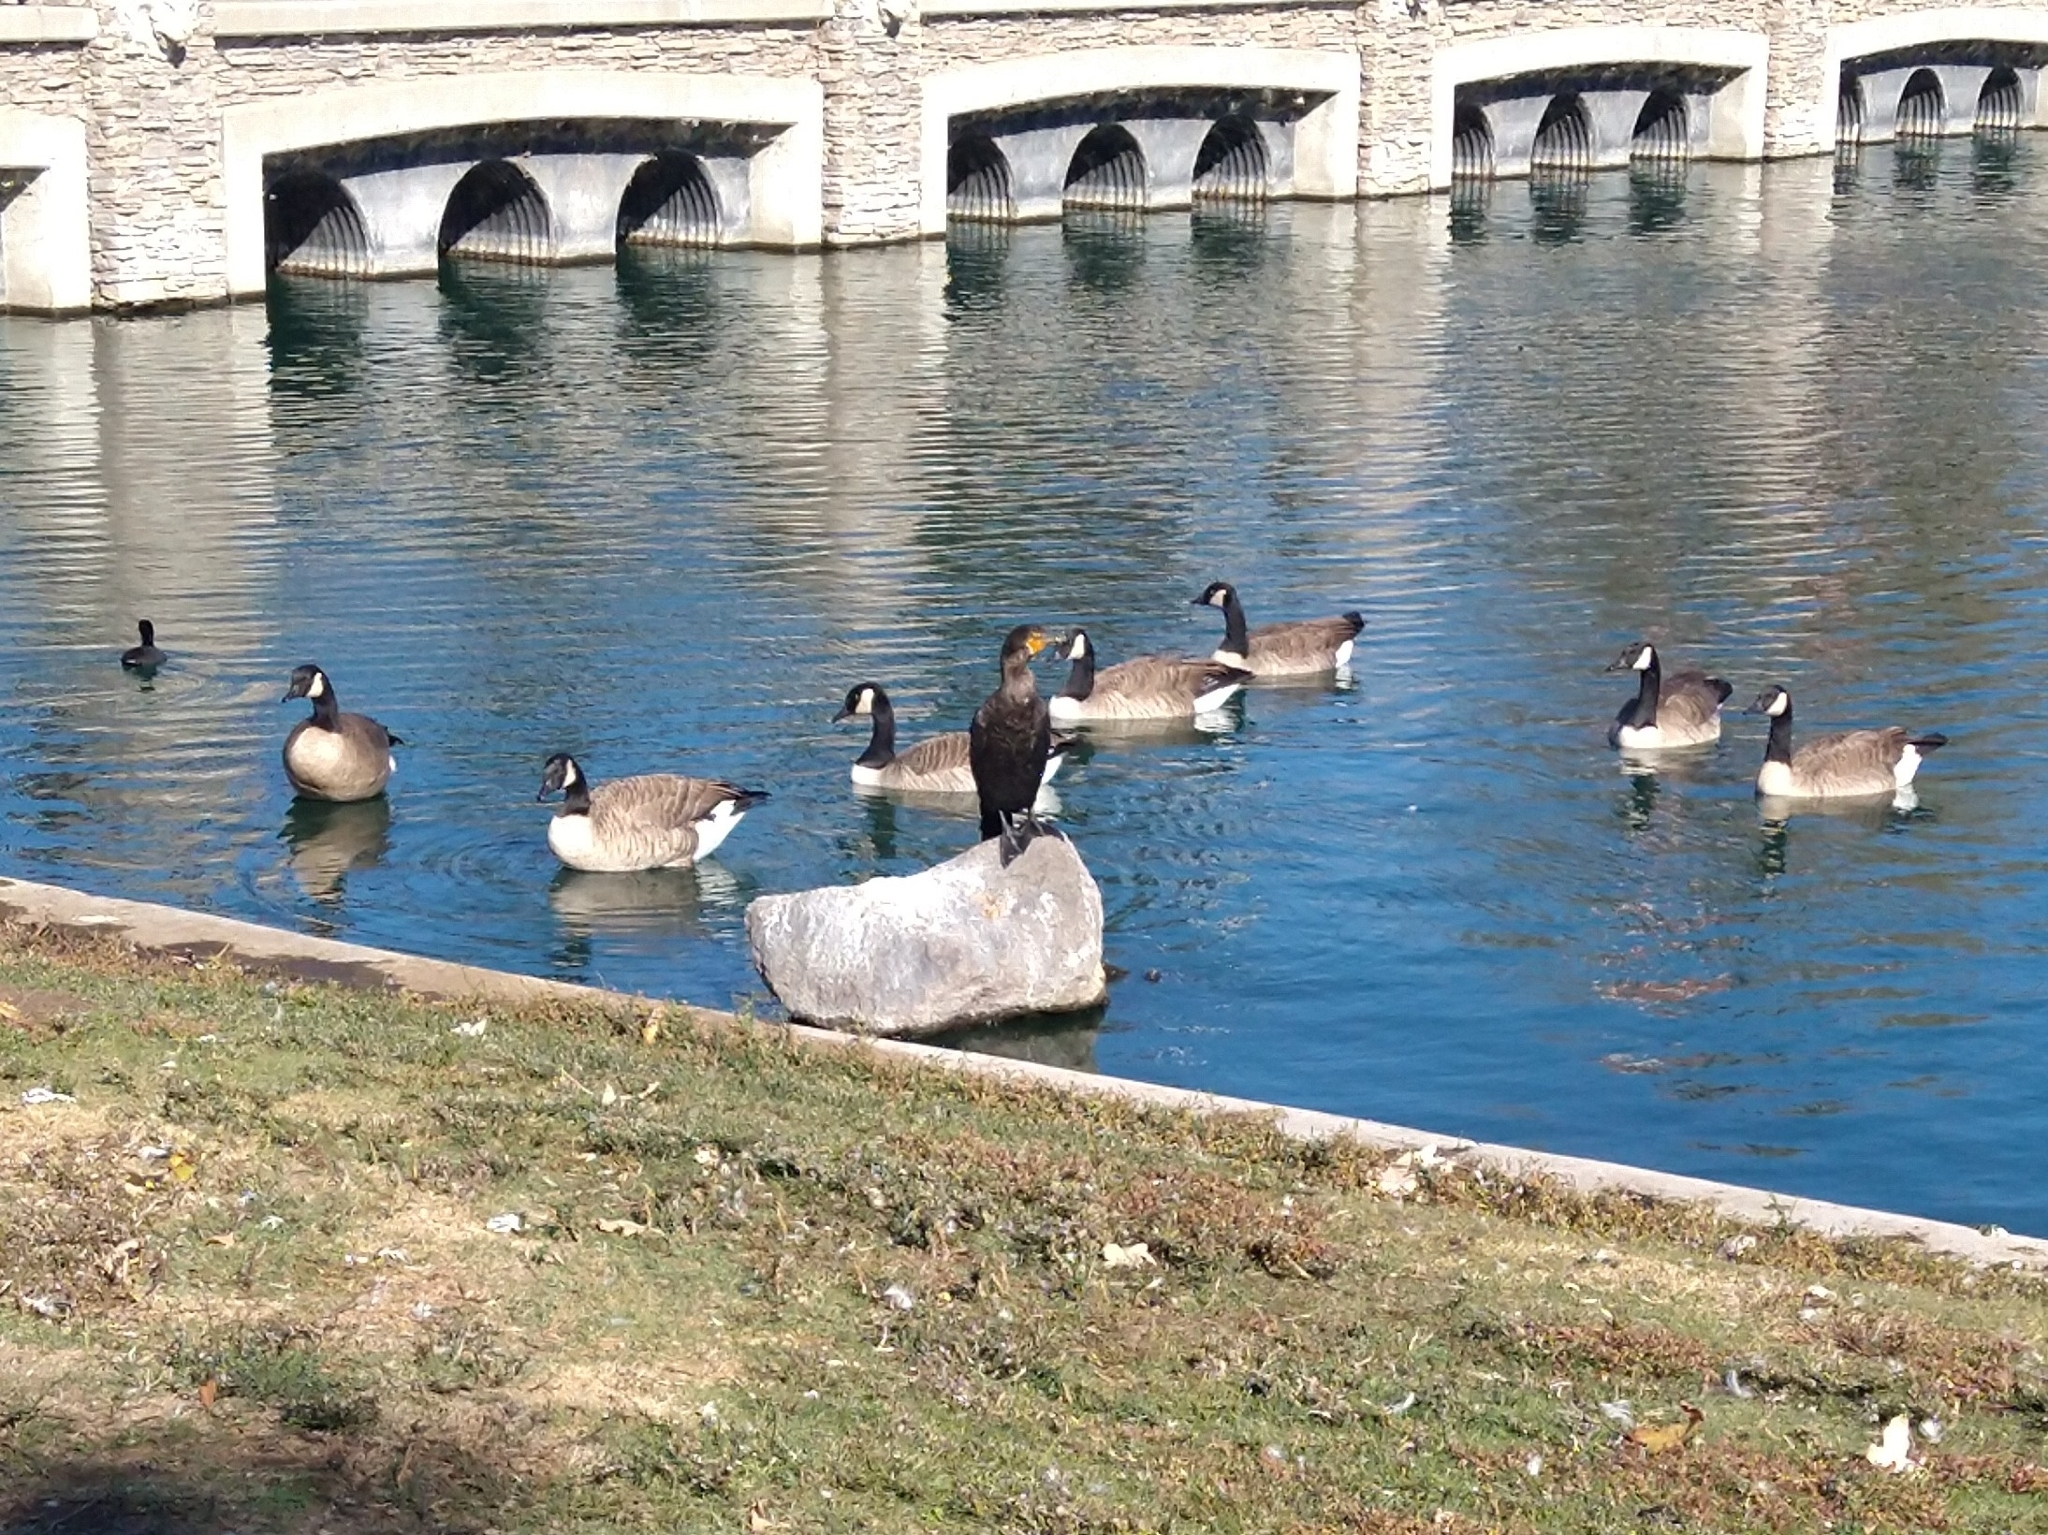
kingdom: Animalia
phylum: Chordata
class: Aves
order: Suliformes
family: Phalacrocoracidae
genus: Phalacrocorax
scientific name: Phalacrocorax auritus
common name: Double-crested cormorant
